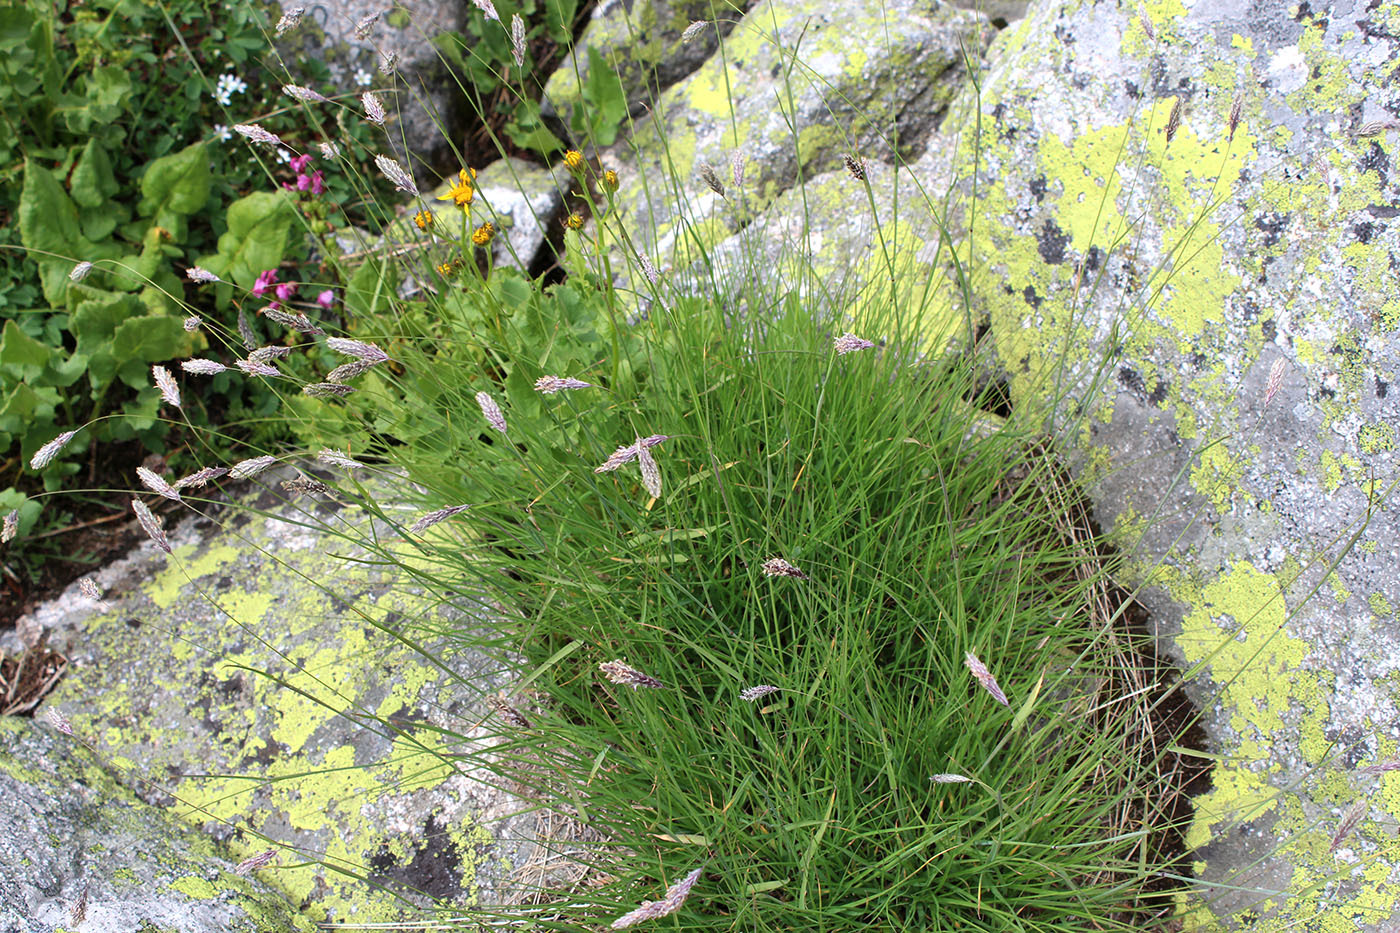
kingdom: Plantae
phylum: Tracheophyta
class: Liliopsida
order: Poales
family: Poaceae
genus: Alopecurus
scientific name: Alopecurus ponticus
